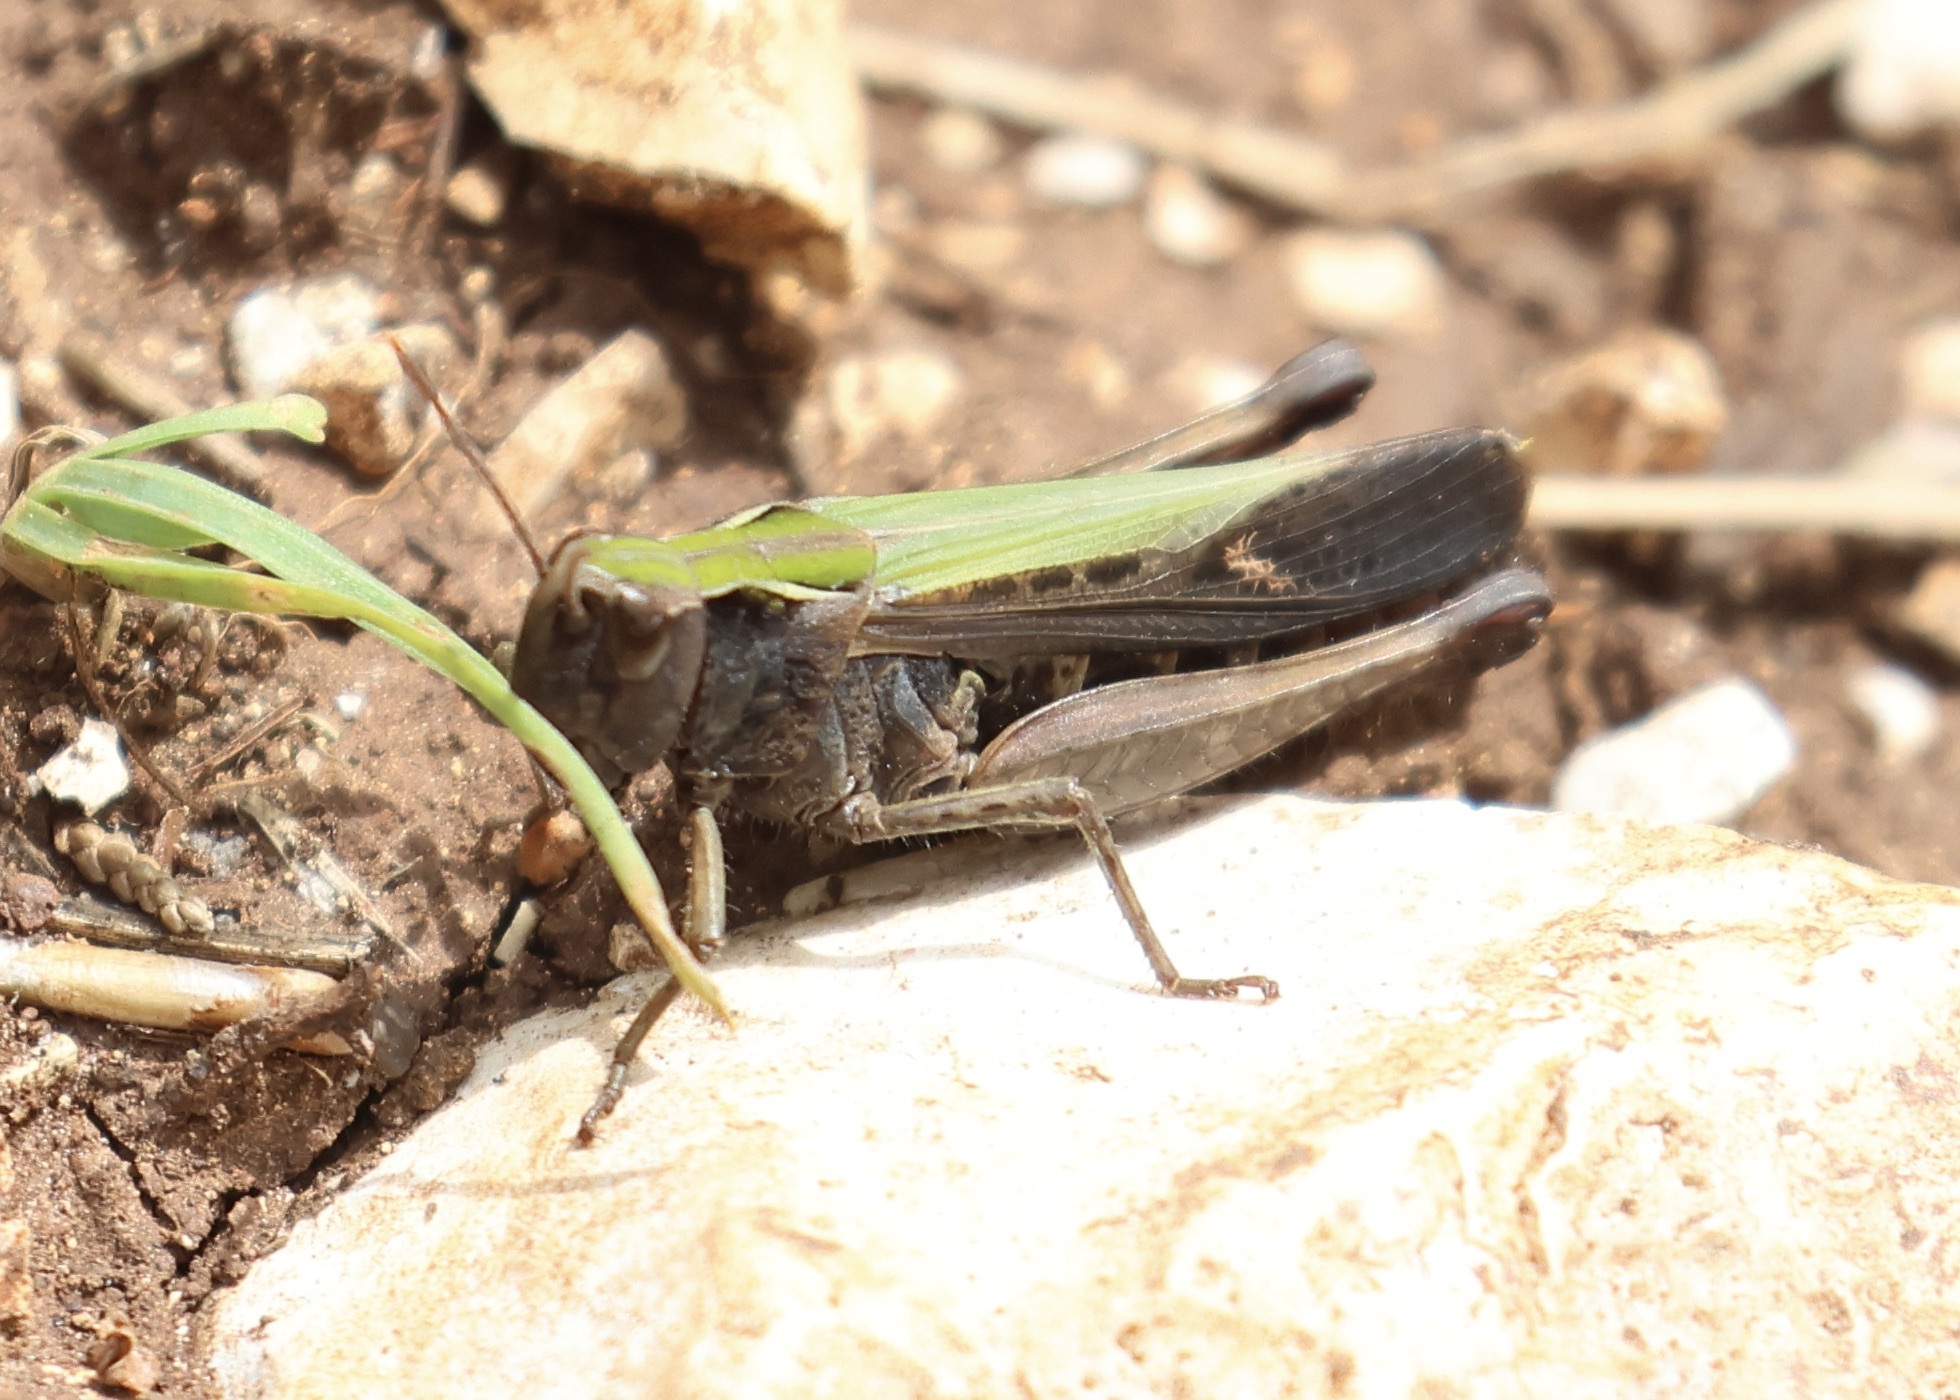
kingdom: Animalia
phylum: Arthropoda
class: Insecta
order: Orthoptera
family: Acrididae
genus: Omocestus
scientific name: Omocestus rufipes
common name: Woodland grasshopper
